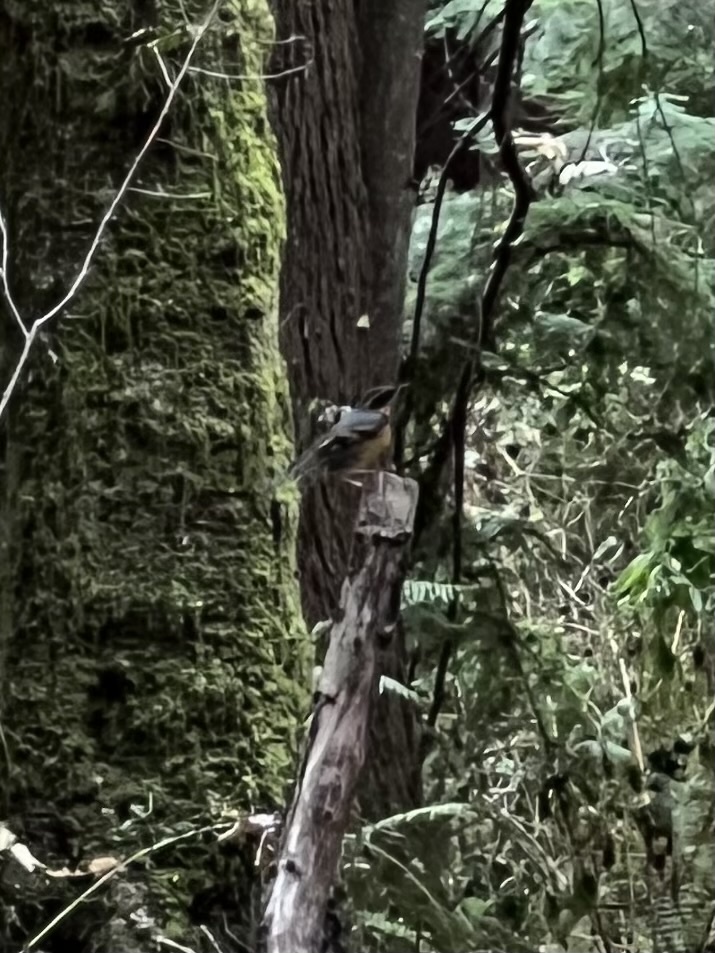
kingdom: Animalia
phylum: Chordata
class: Aves
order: Passeriformes
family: Turdidae
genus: Ixoreus
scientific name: Ixoreus naevius
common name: Varied thrush
